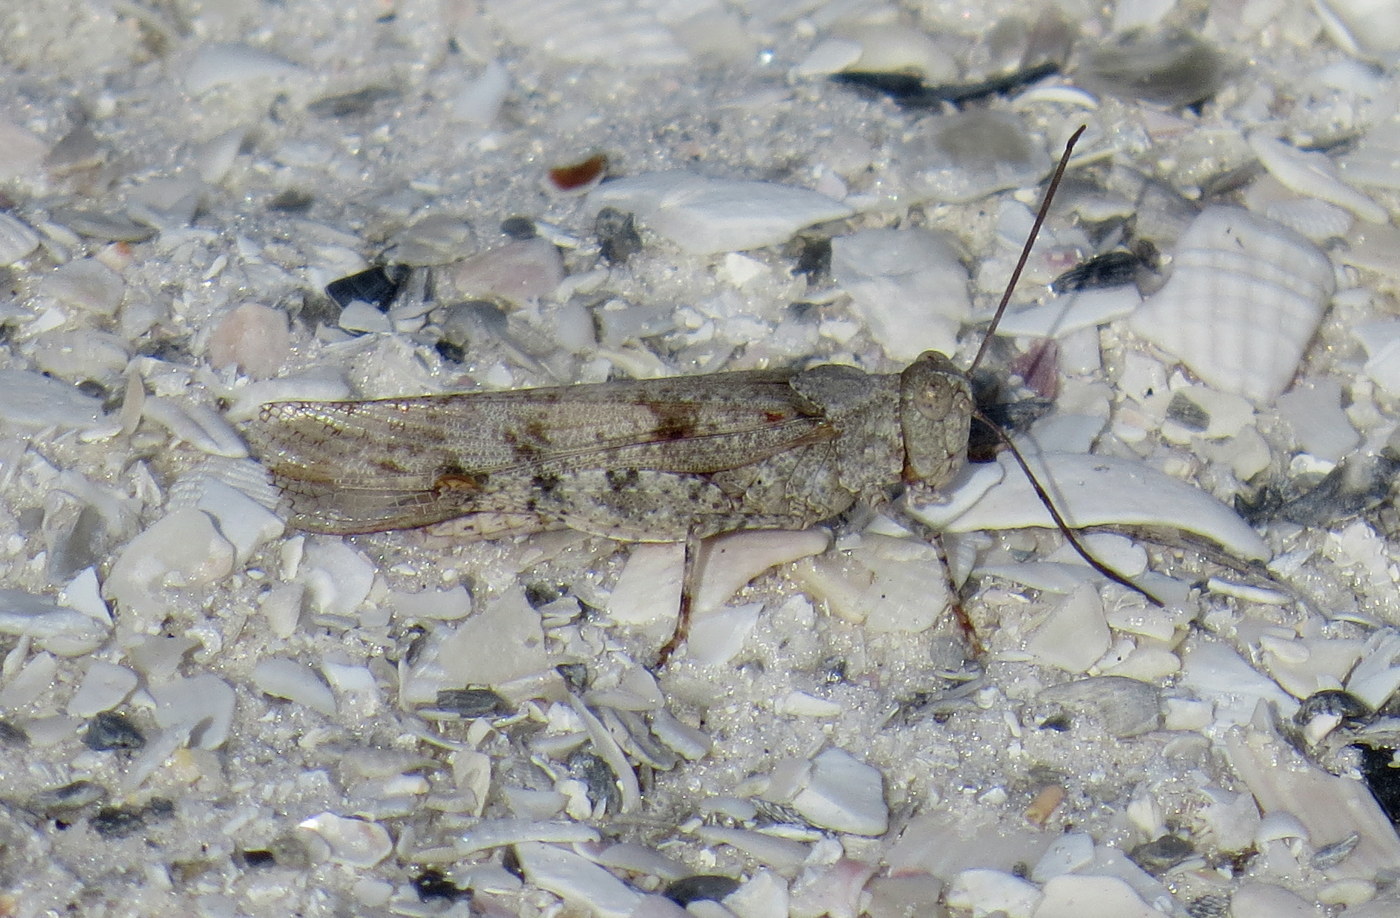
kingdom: Animalia
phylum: Arthropoda
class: Insecta
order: Orthoptera
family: Acrididae
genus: Trimerotropis
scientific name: Trimerotropis maritima
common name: Seaside locust
